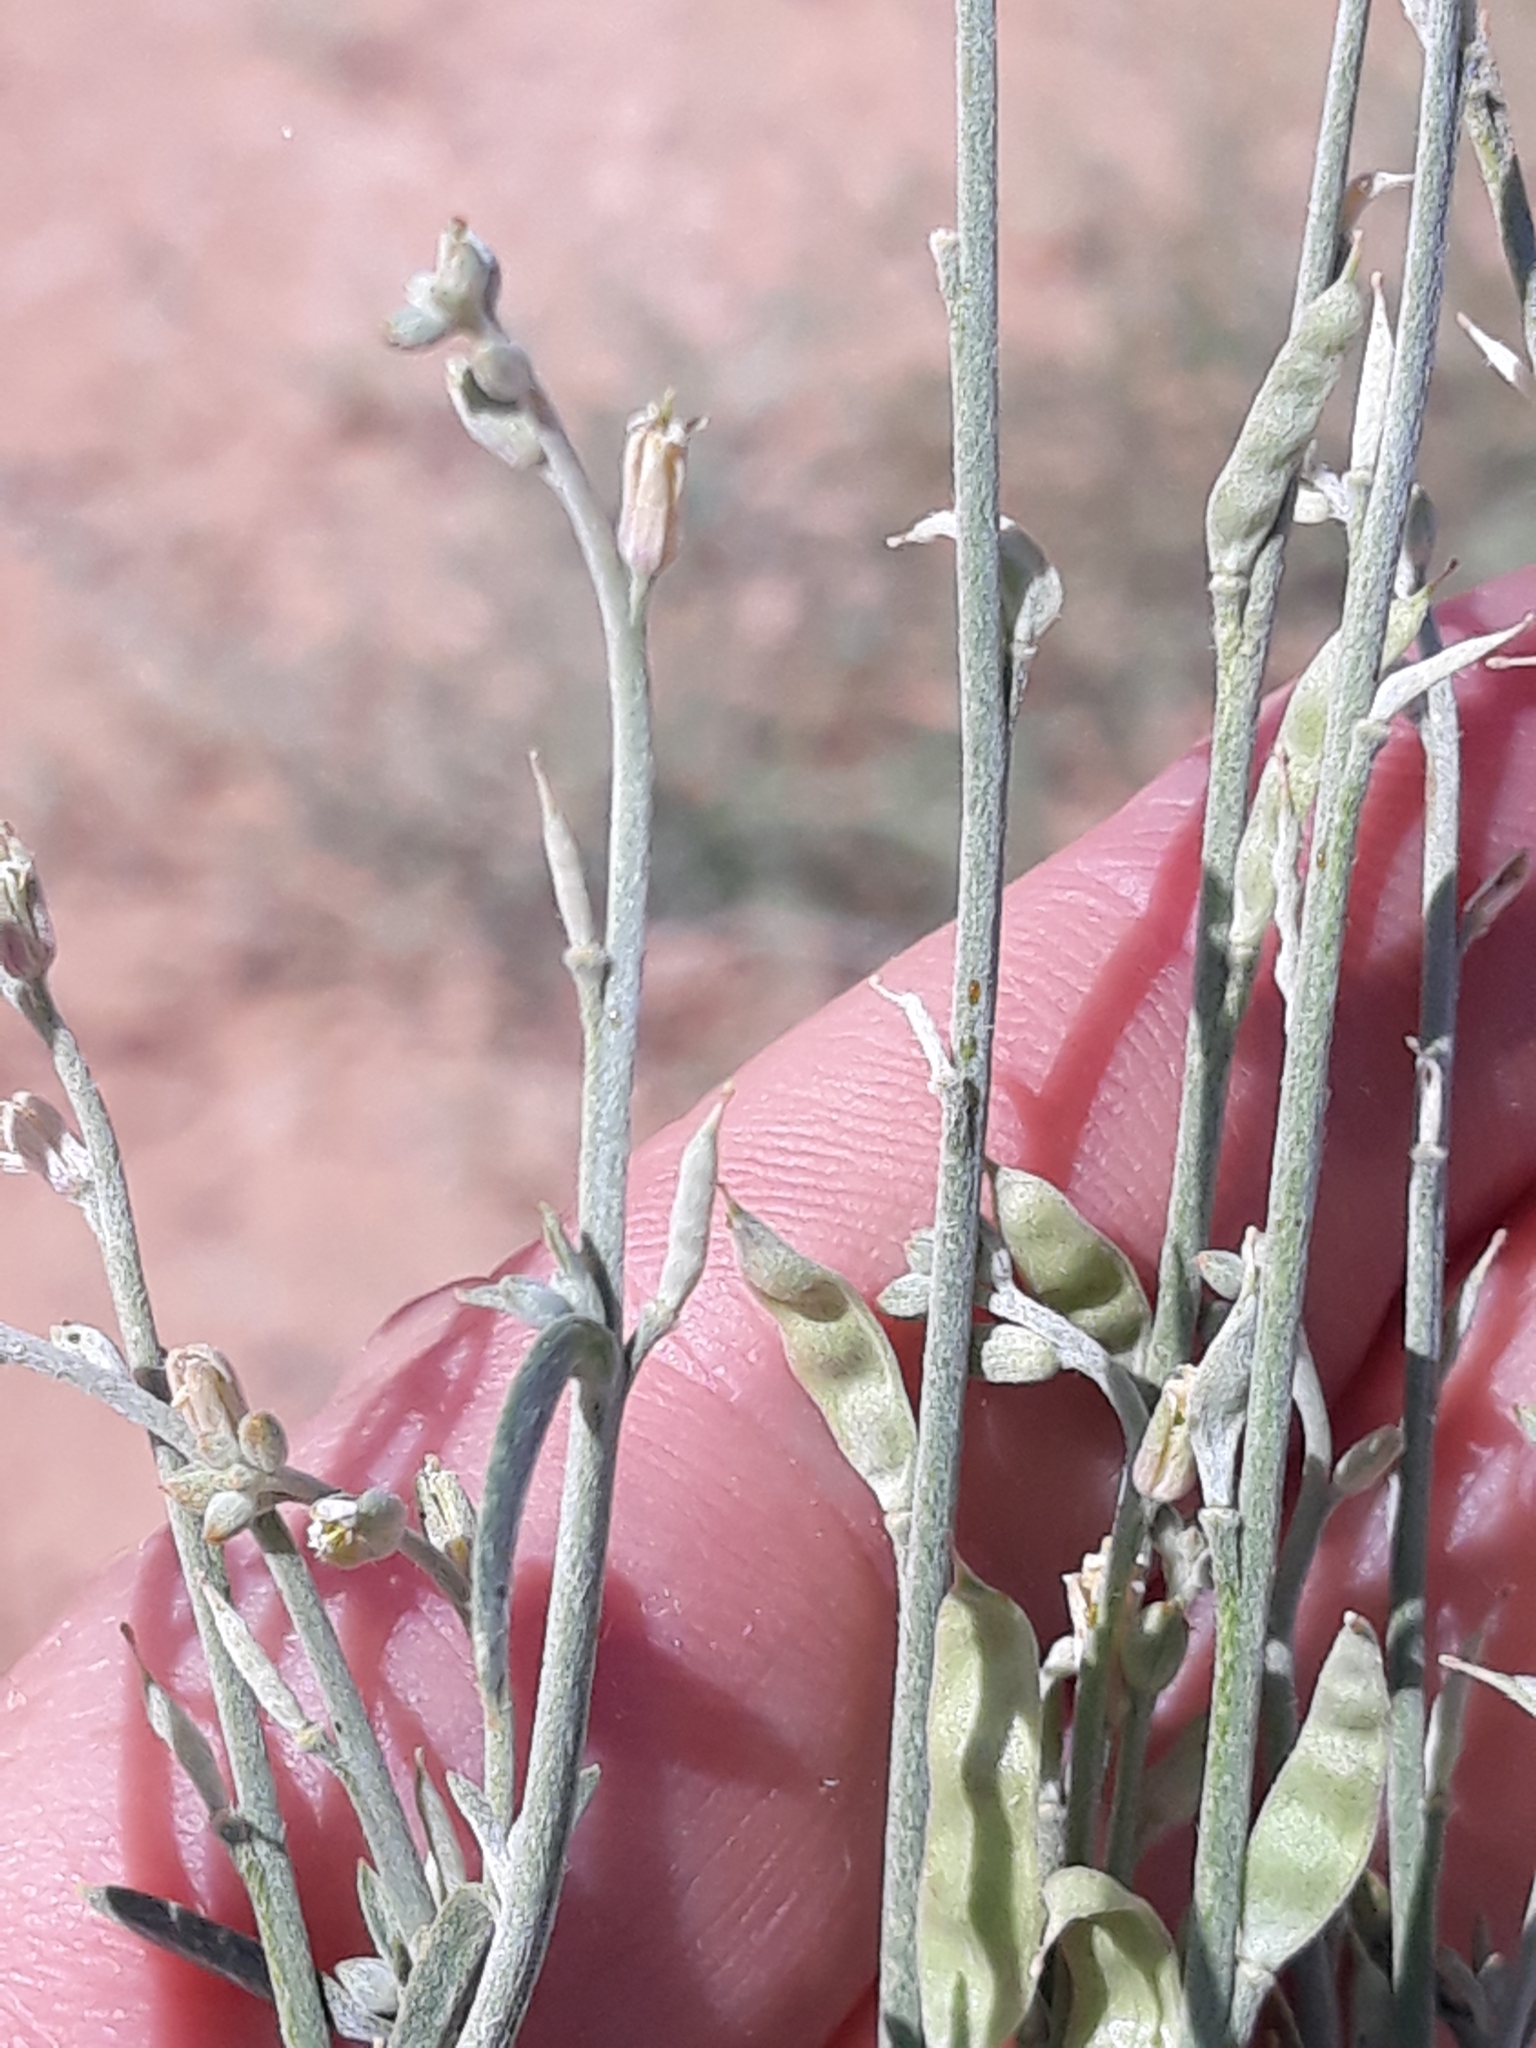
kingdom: Plantae
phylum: Tracheophyta
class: Magnoliopsida
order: Brassicales
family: Brassicaceae
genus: Farsetia
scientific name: Farsetia stylosa
